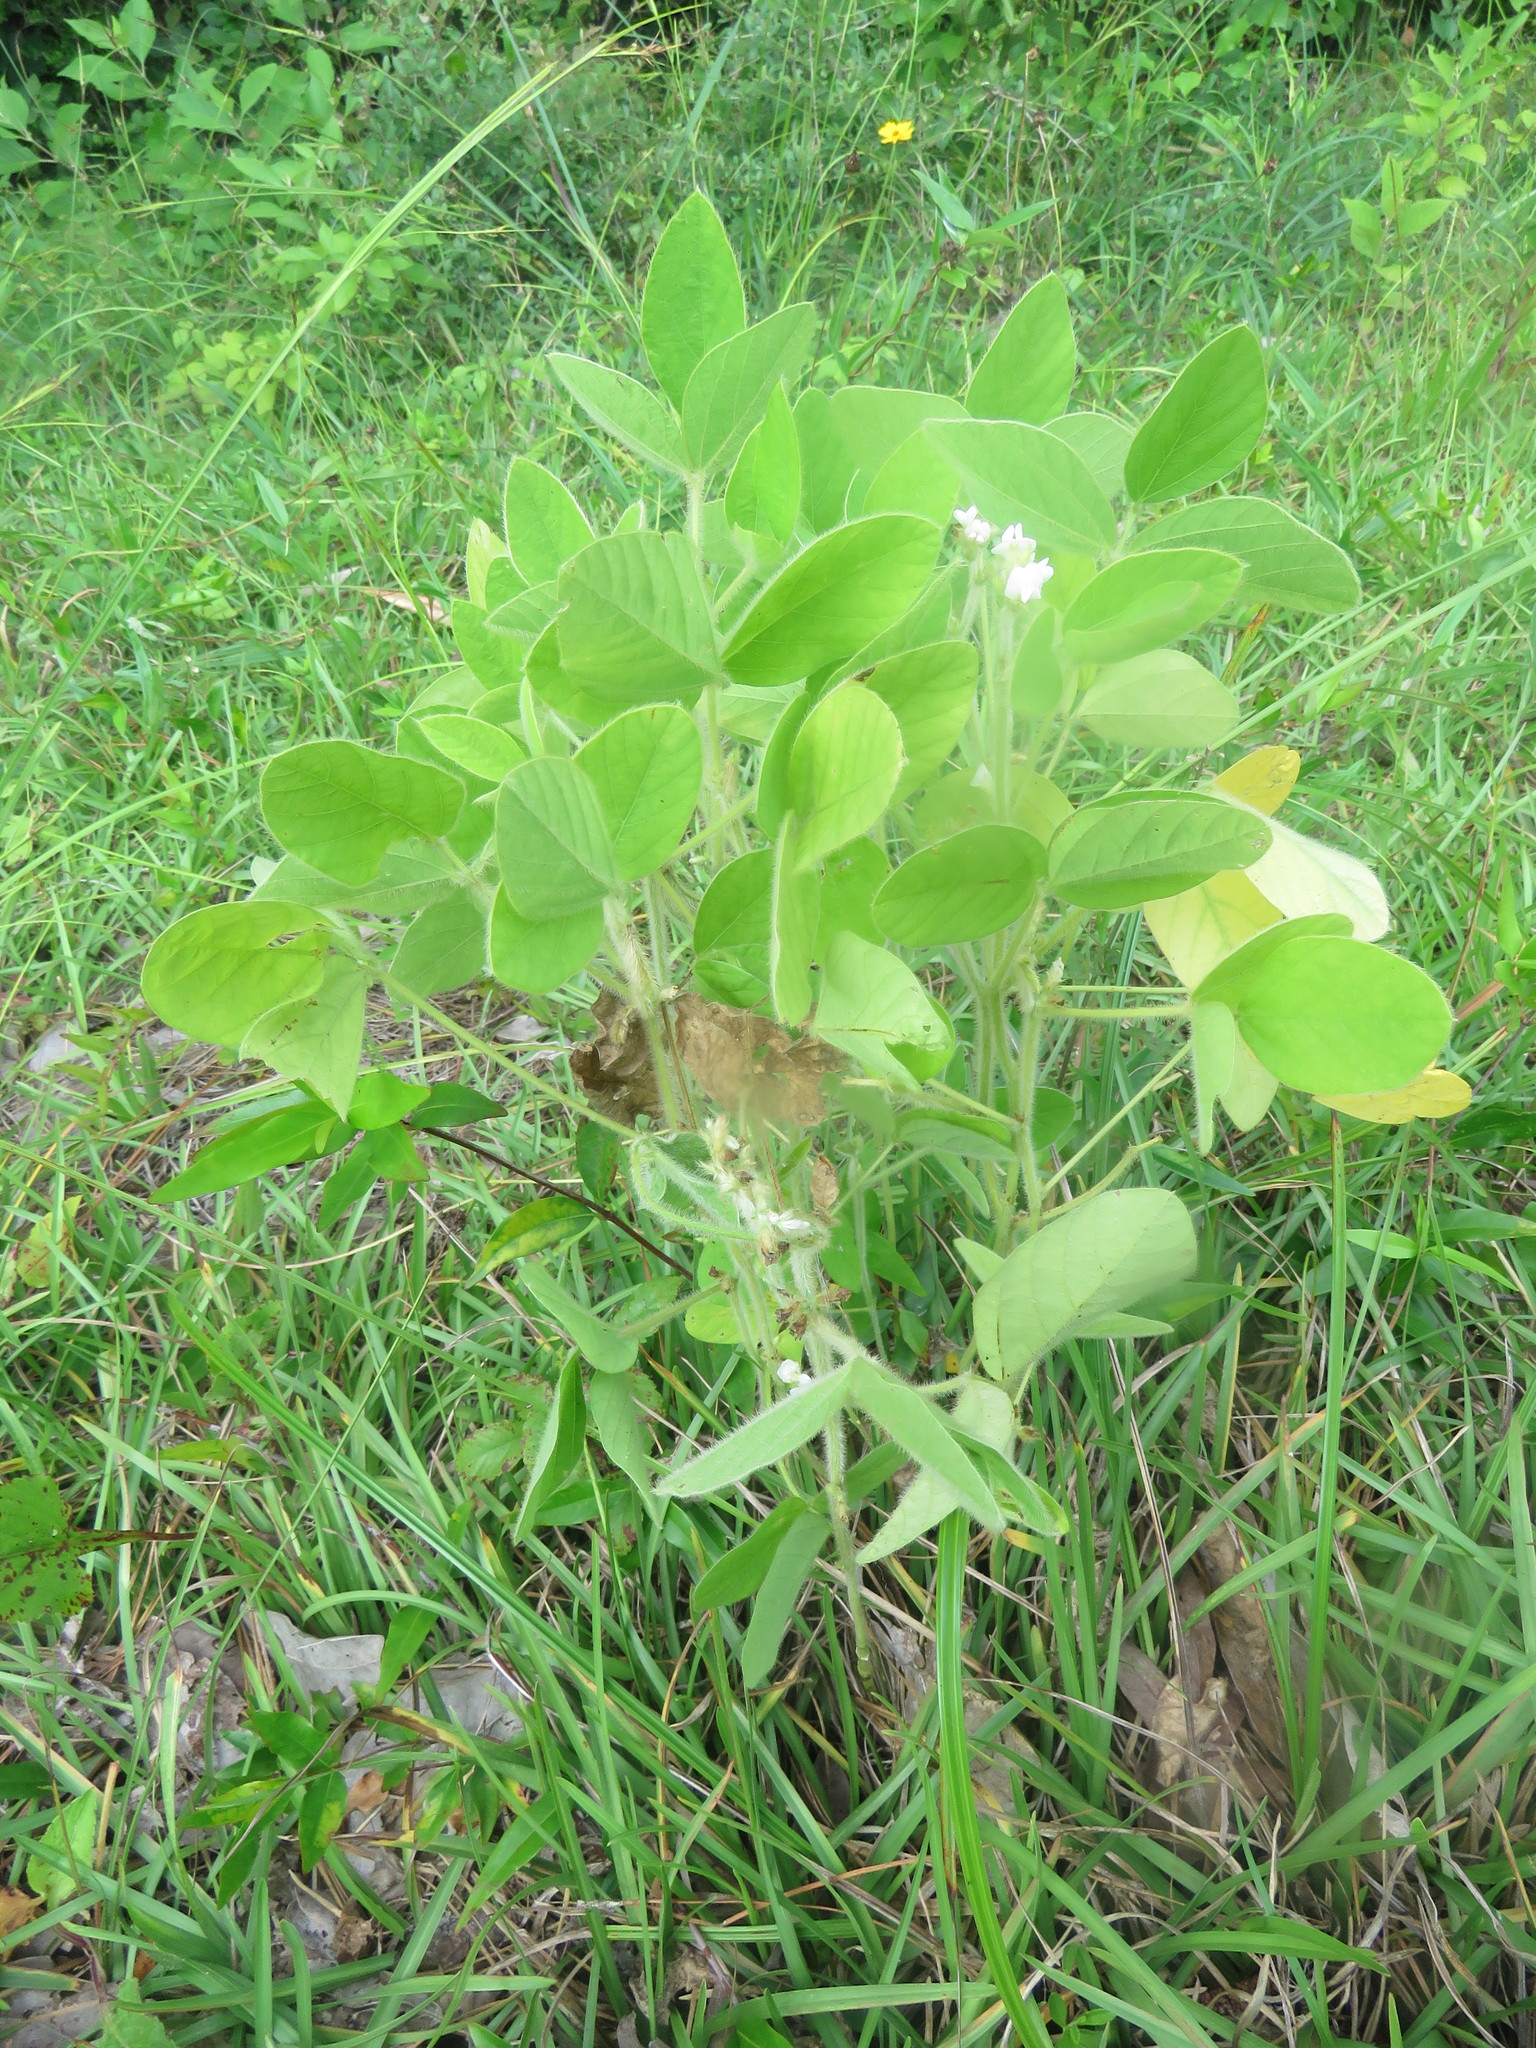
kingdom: Plantae
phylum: Tracheophyta
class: Magnoliopsida
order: Fabales
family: Fabaceae
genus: Glycine
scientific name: Glycine max
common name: Soya-bean
